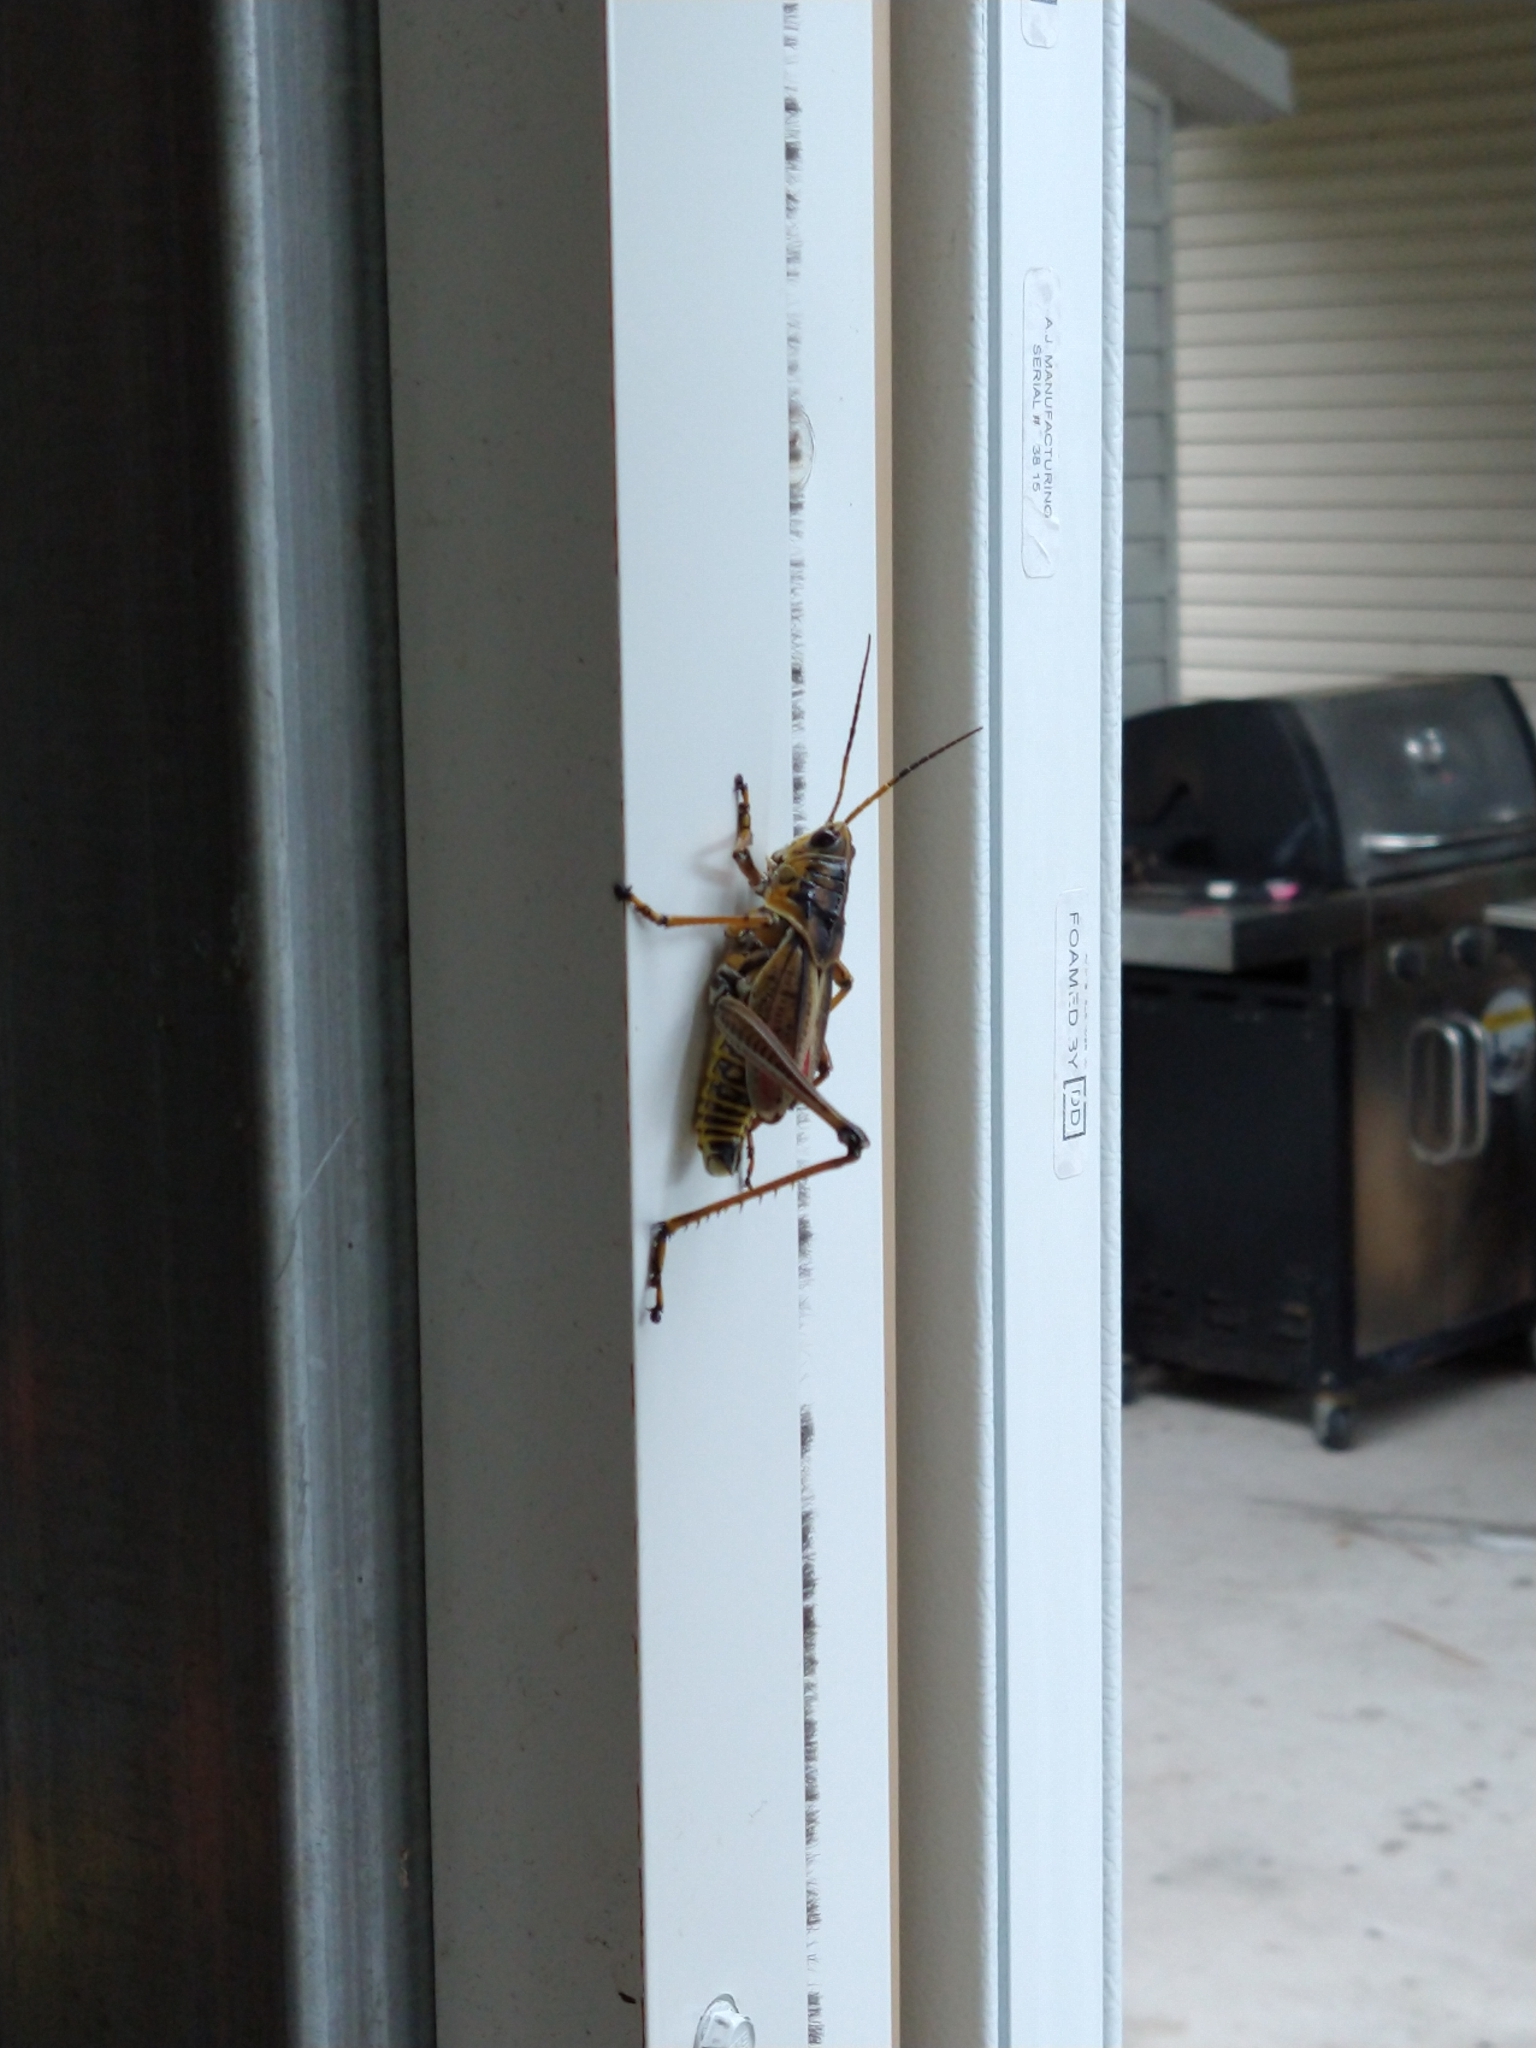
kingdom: Animalia
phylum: Arthropoda
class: Insecta
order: Orthoptera
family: Romaleidae
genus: Romalea
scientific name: Romalea microptera
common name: Eastern lubber grasshopper
